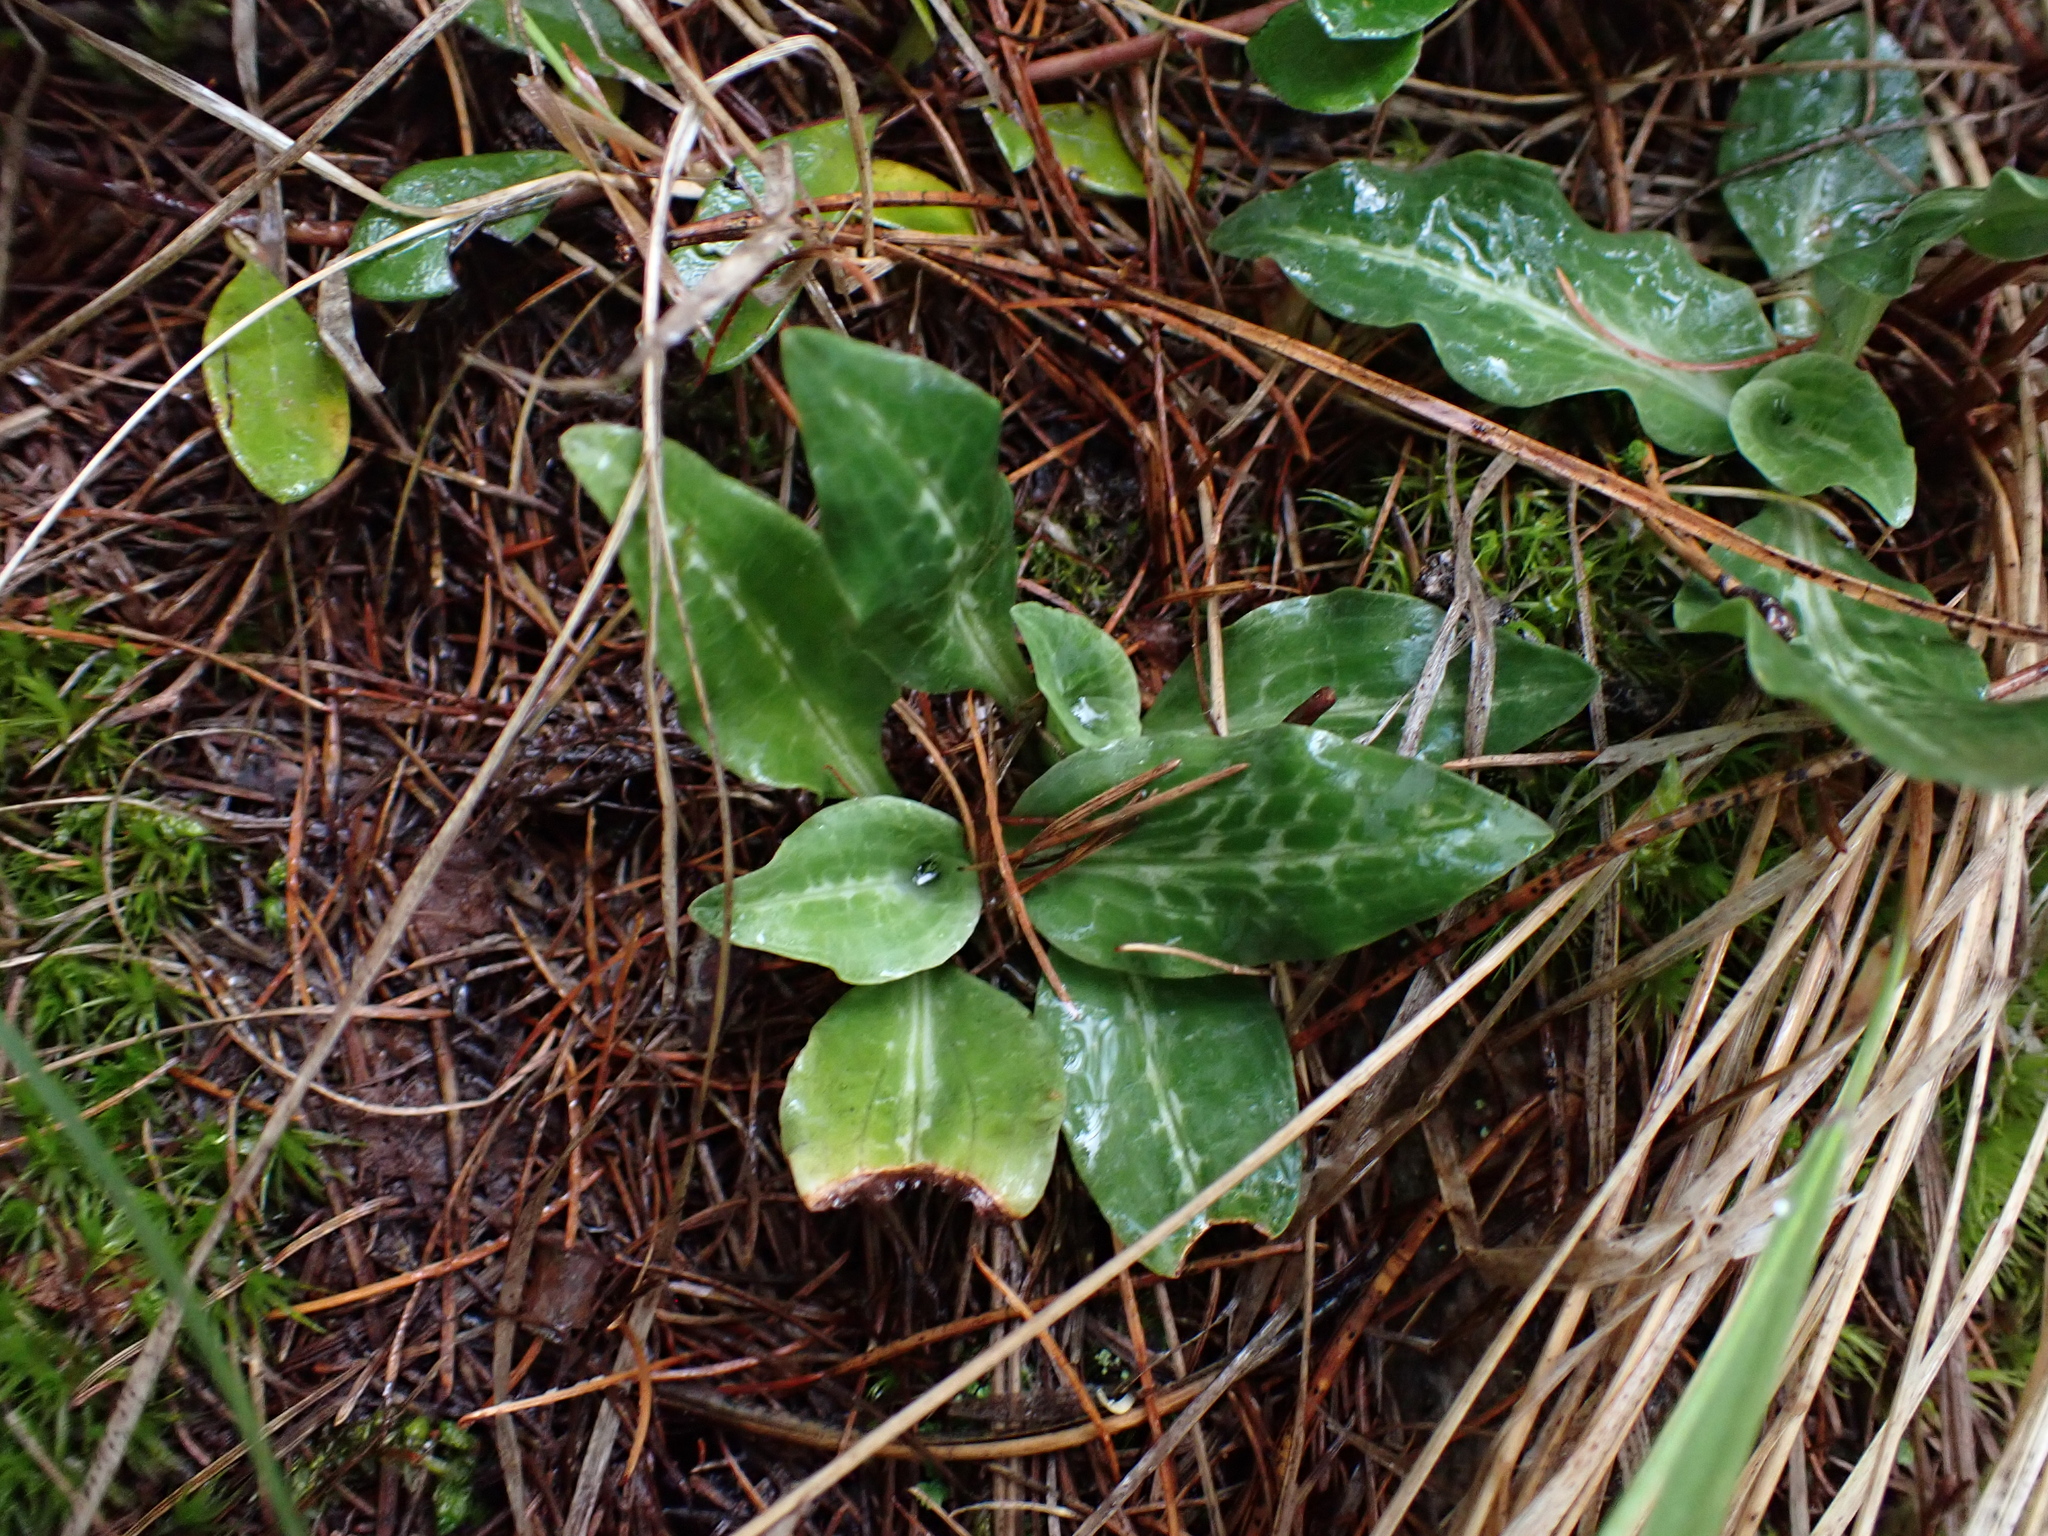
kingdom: Plantae
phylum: Tracheophyta
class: Liliopsida
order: Asparagales
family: Orchidaceae
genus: Goodyera
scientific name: Goodyera oblongifolia
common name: Giant rattlesnake-plantain
